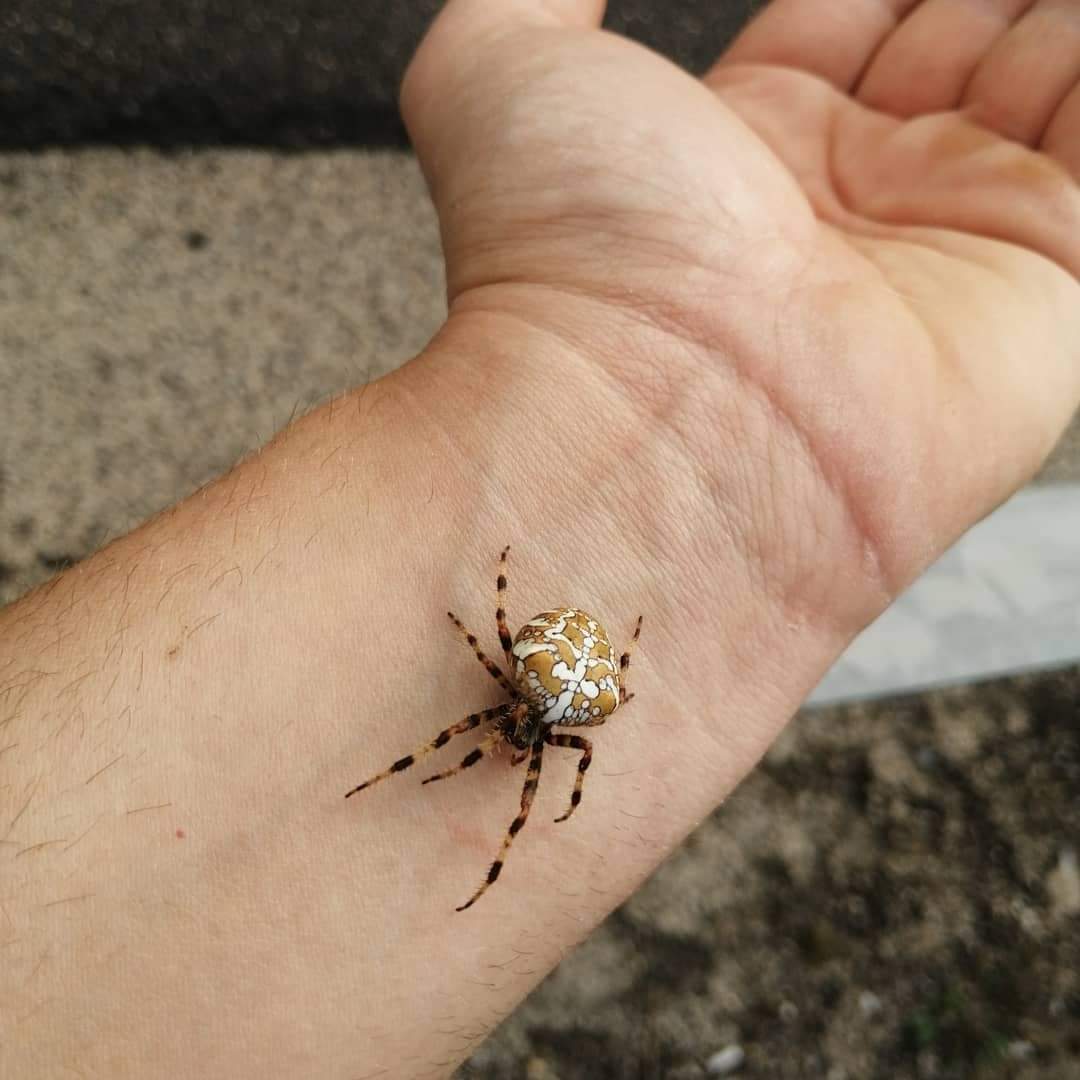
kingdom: Animalia
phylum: Arthropoda
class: Arachnida
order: Araneae
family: Araneidae
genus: Araneus
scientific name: Araneus diadematus
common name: Cross orbweaver
